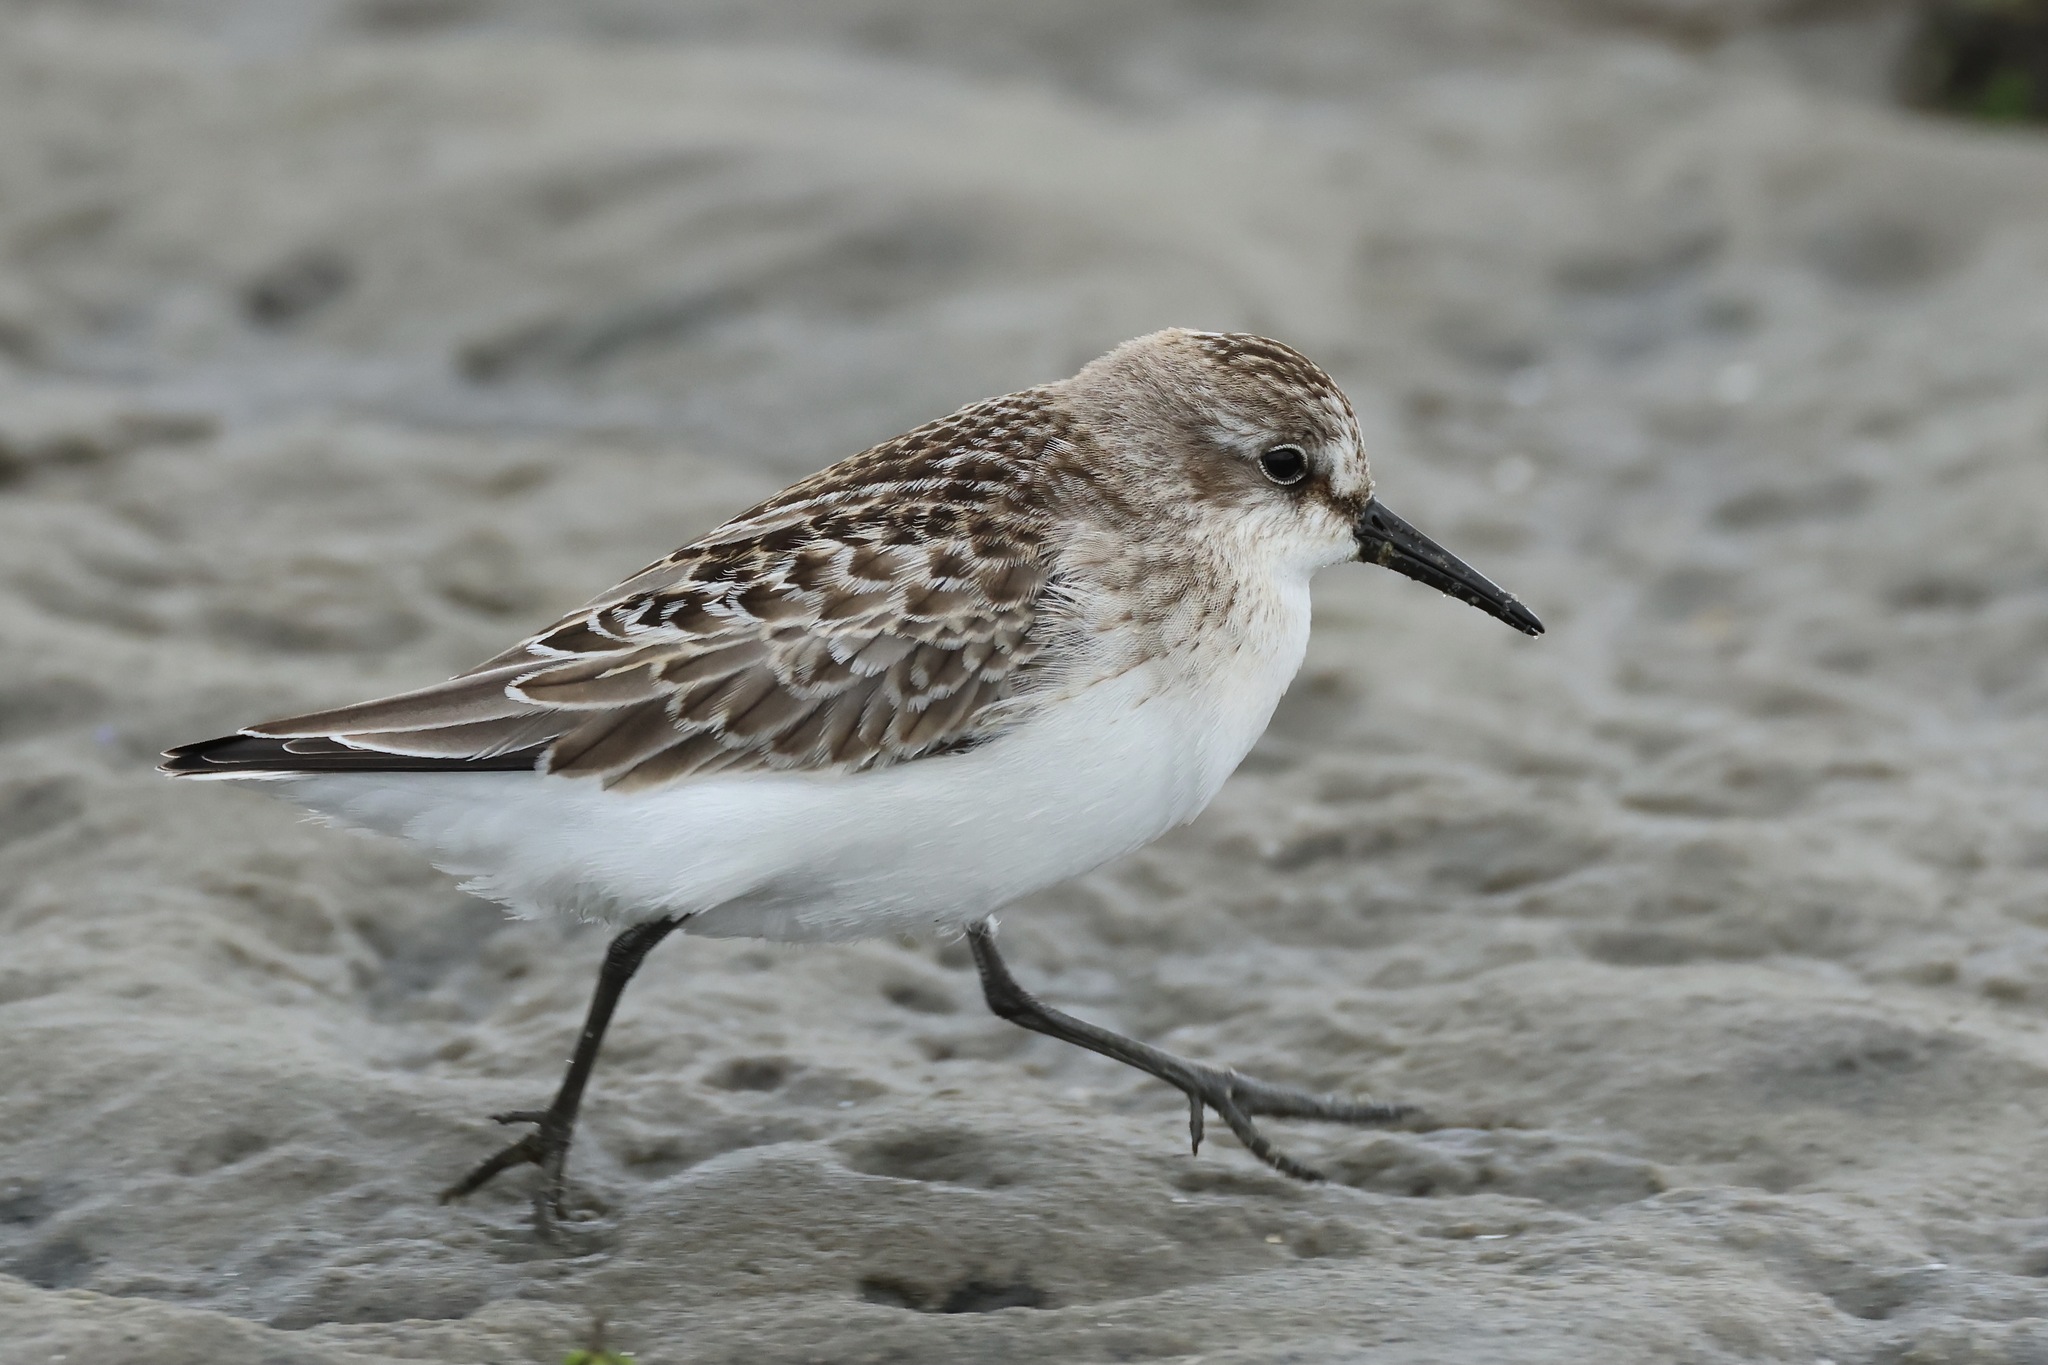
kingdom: Animalia
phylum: Chordata
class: Aves
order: Charadriiformes
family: Scolopacidae
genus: Calidris
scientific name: Calidris pusilla
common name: Semipalmated sandpiper
